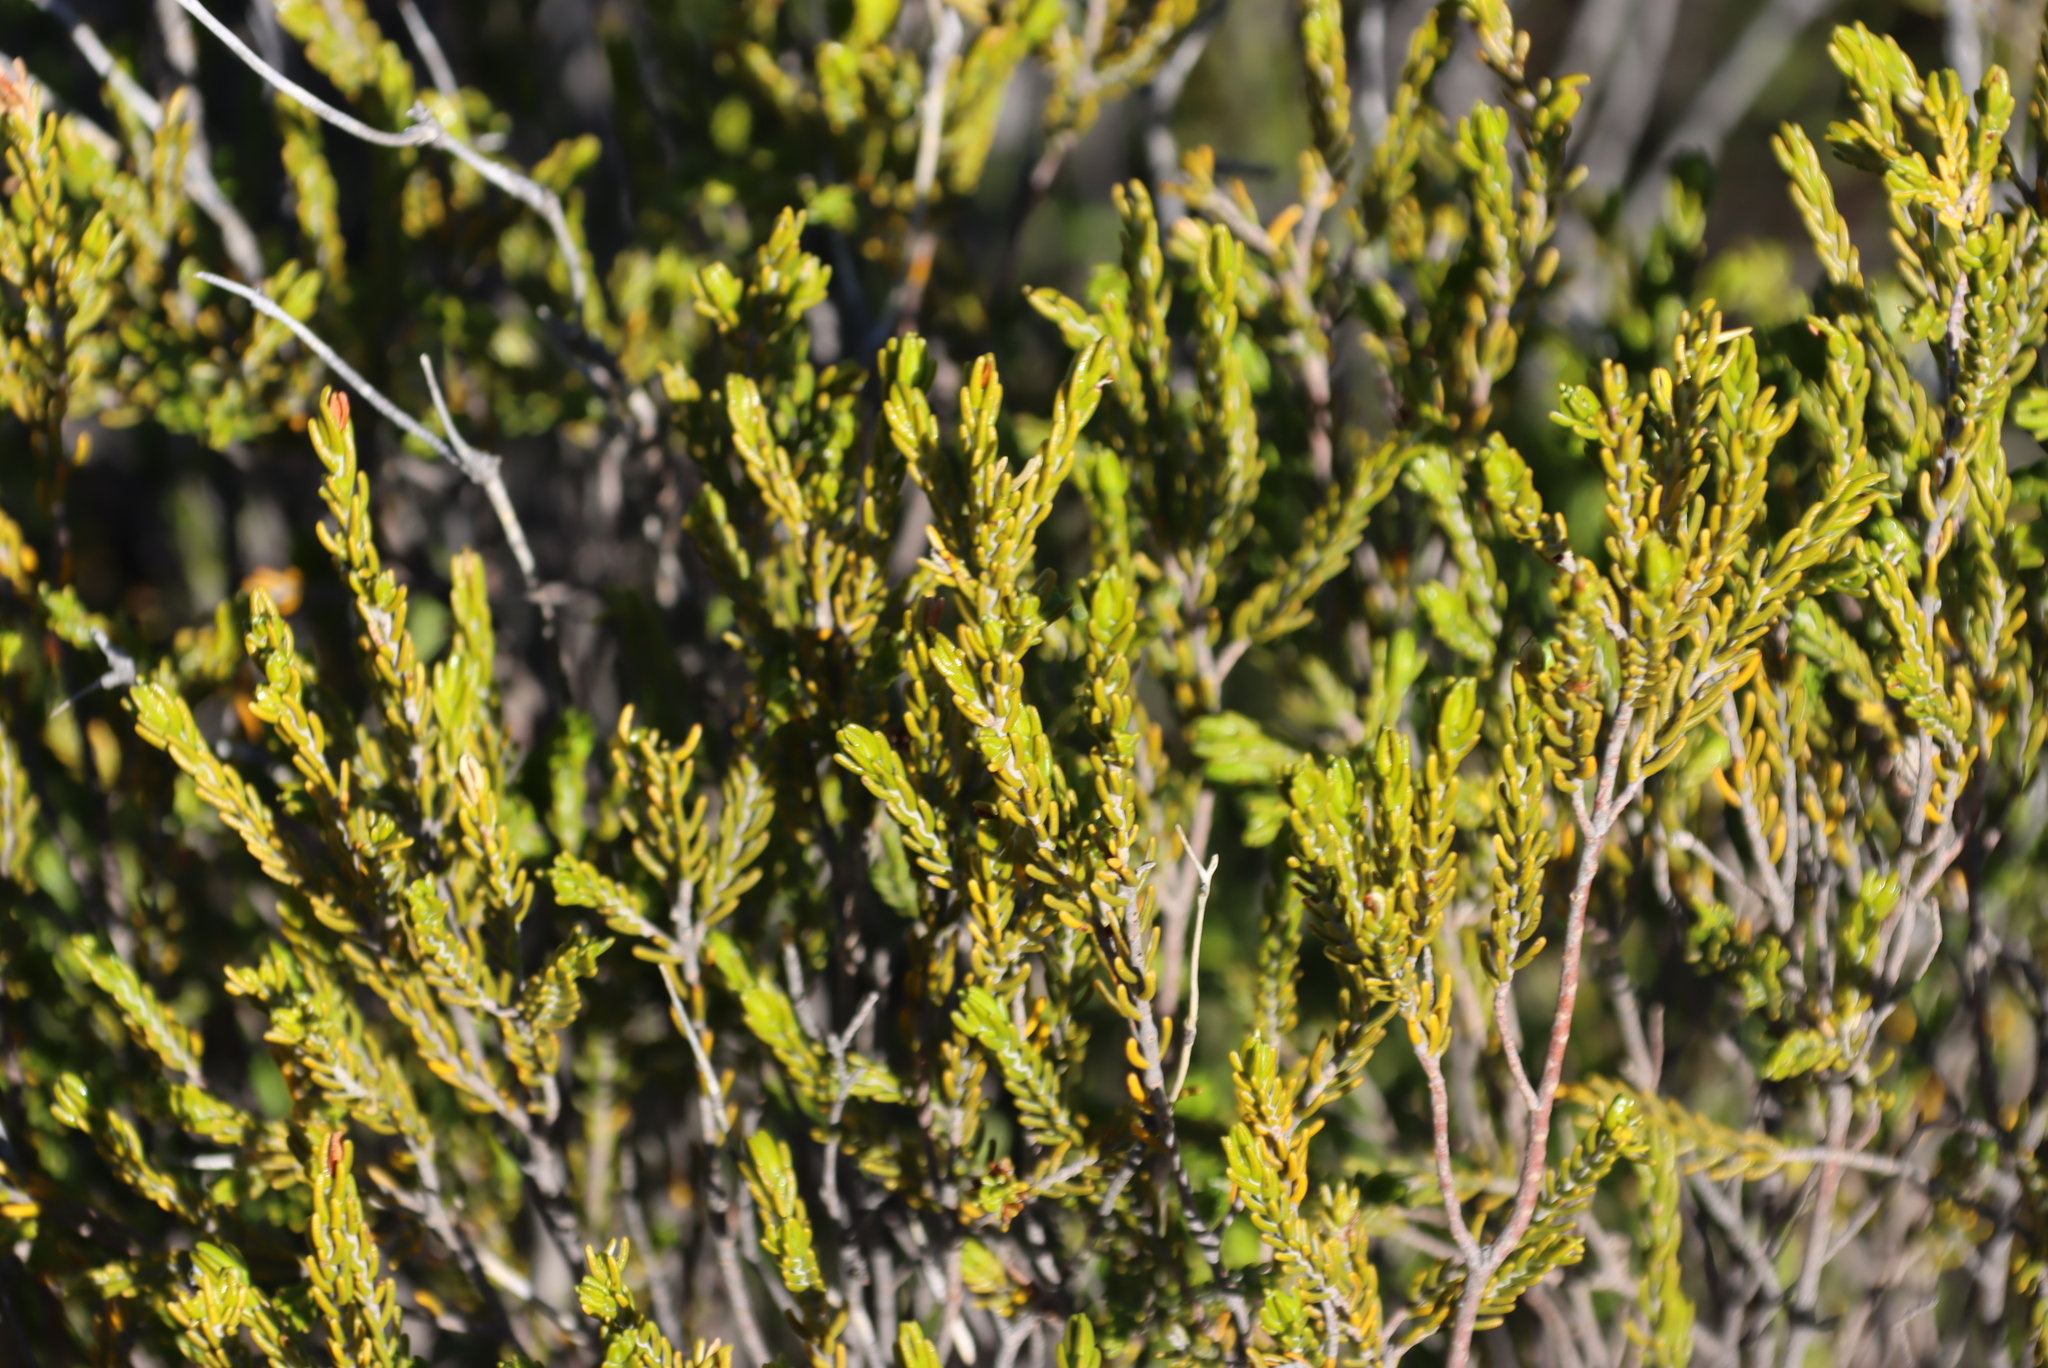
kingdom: Plantae
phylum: Tracheophyta
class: Magnoliopsida
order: Malvales
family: Thymelaeaceae
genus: Passerina
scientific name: Passerina obtusifolia
